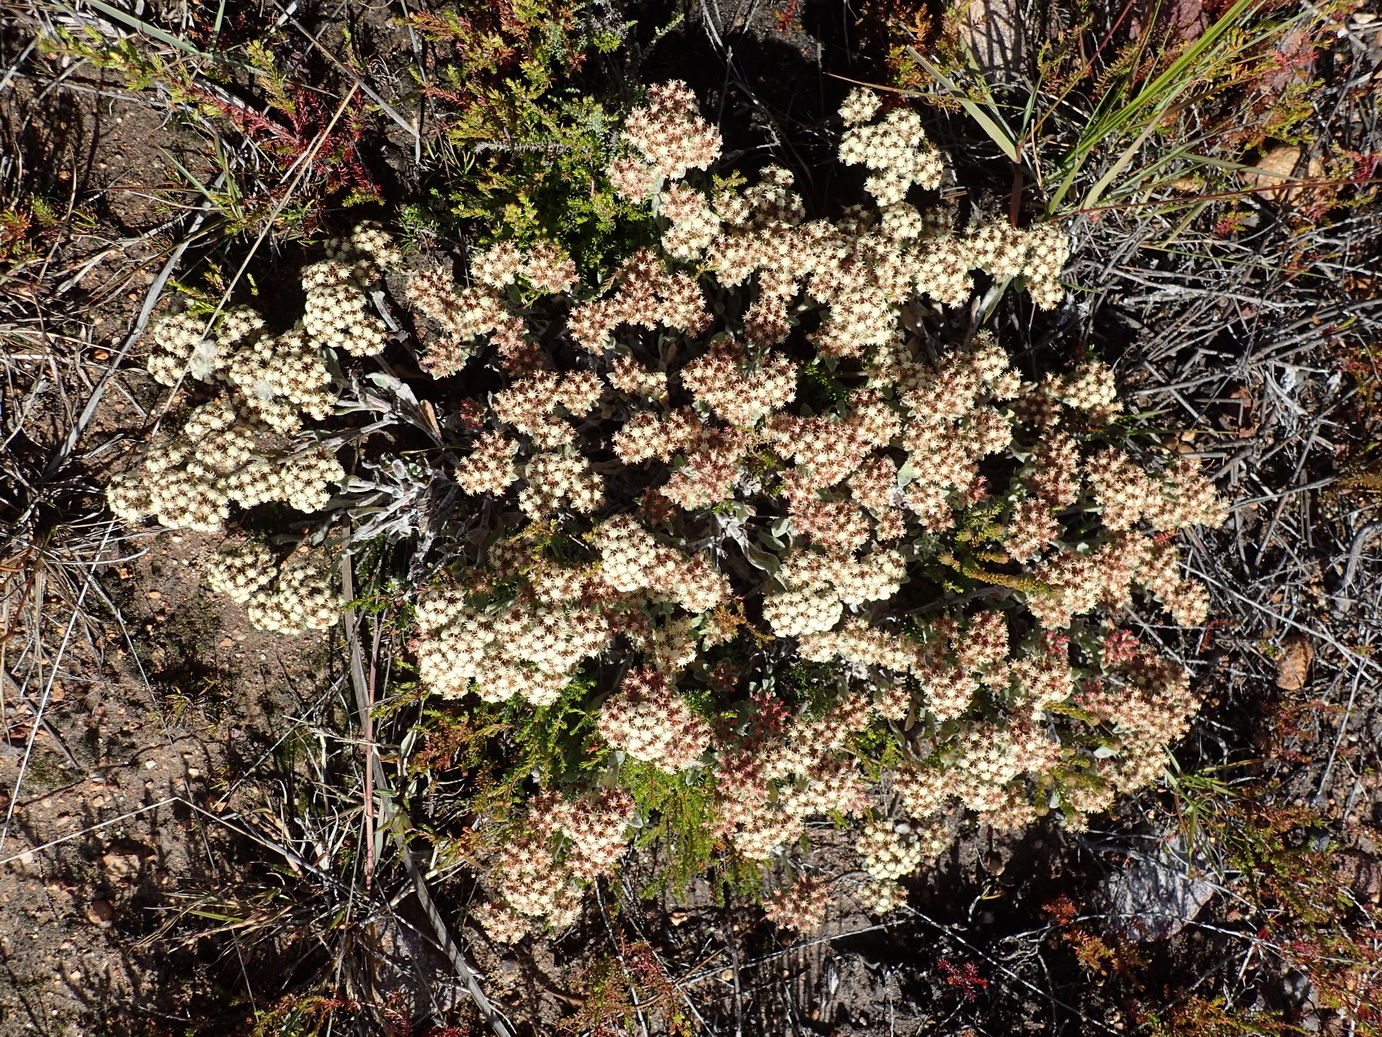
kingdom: Plantae
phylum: Tracheophyta
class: Magnoliopsida
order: Asterales
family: Asteraceae
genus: Helichrysum
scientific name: Helichrysum spiralepis
